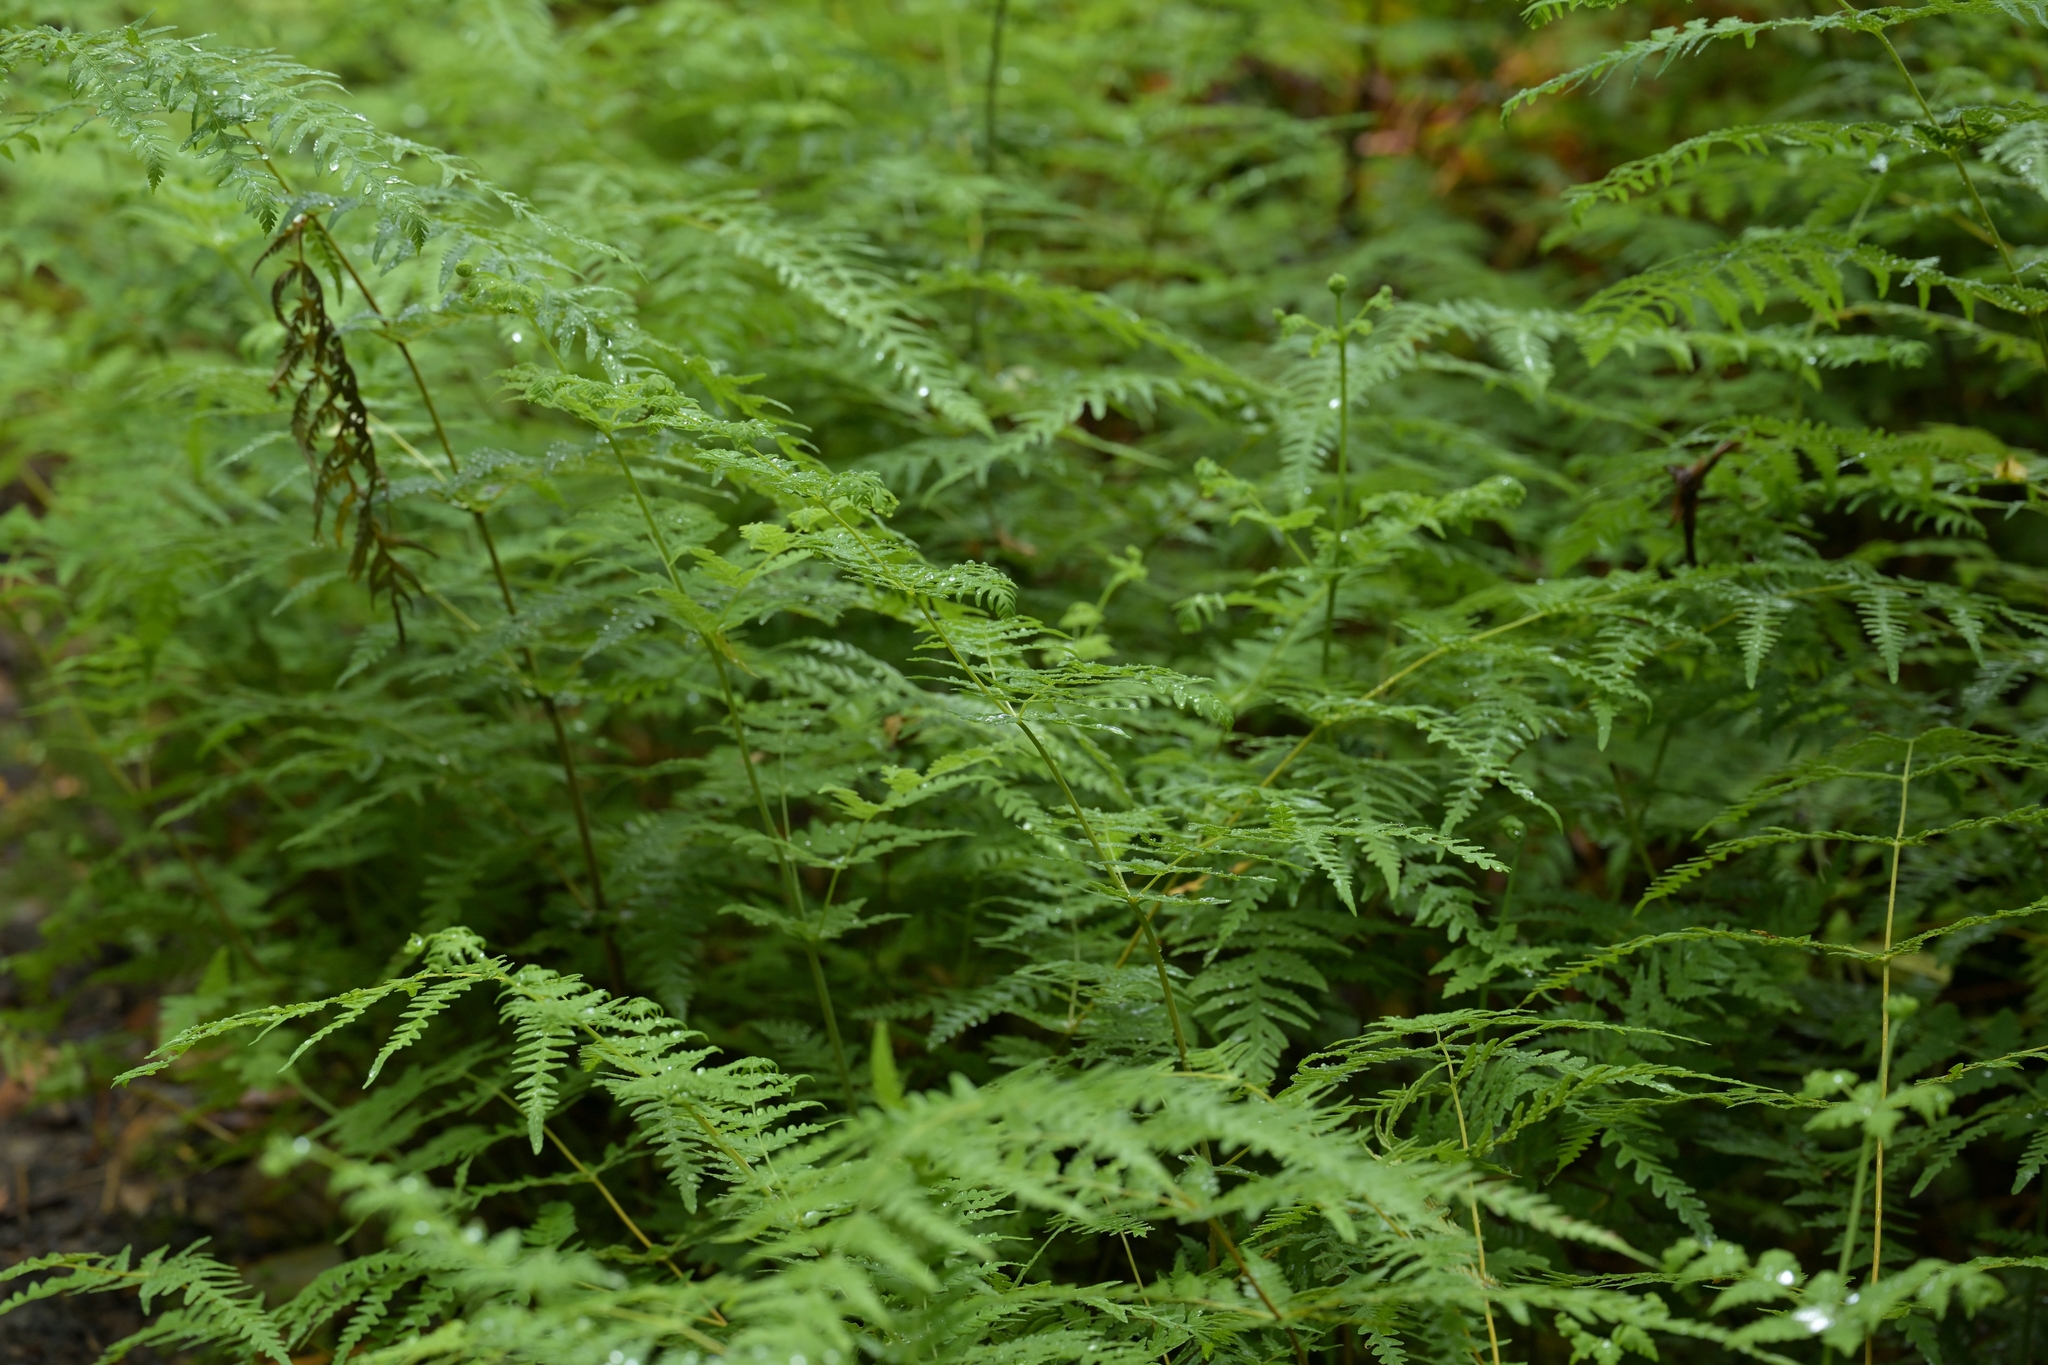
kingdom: Plantae
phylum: Tracheophyta
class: Polypodiopsida
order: Polypodiales
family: Dennstaedtiaceae
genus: Histiopteris
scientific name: Histiopteris incisa
